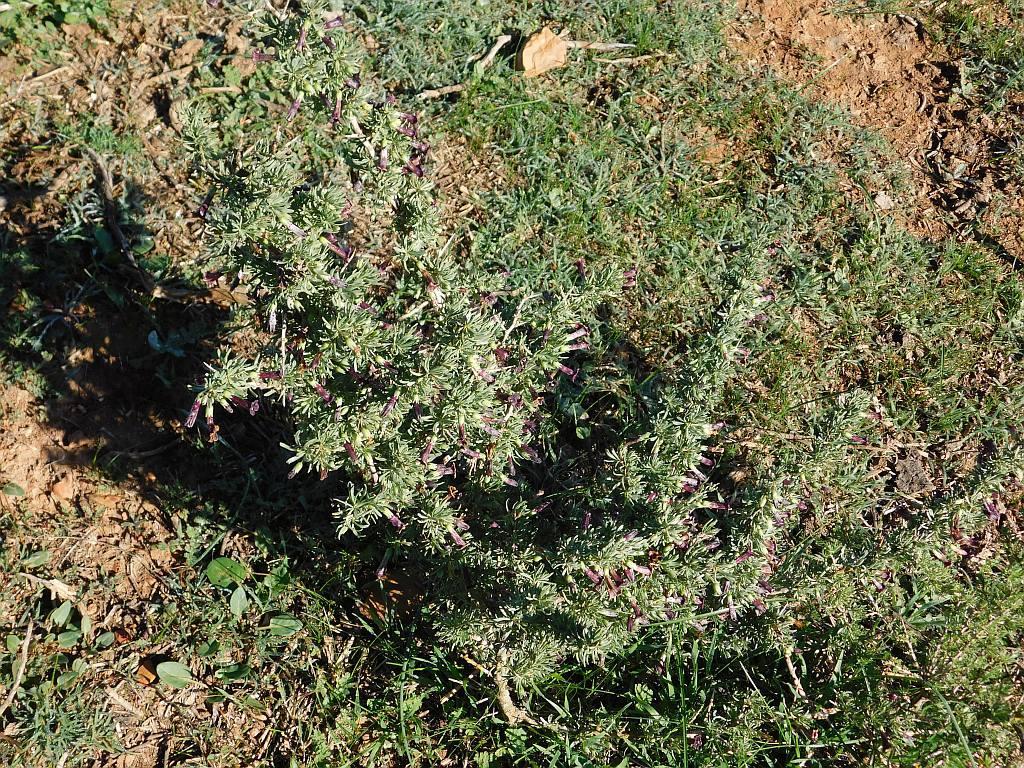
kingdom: Plantae
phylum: Tracheophyta
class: Magnoliopsida
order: Solanales
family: Solanaceae
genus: Lycium
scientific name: Lycium afrum
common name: Kaffir boxthorn
